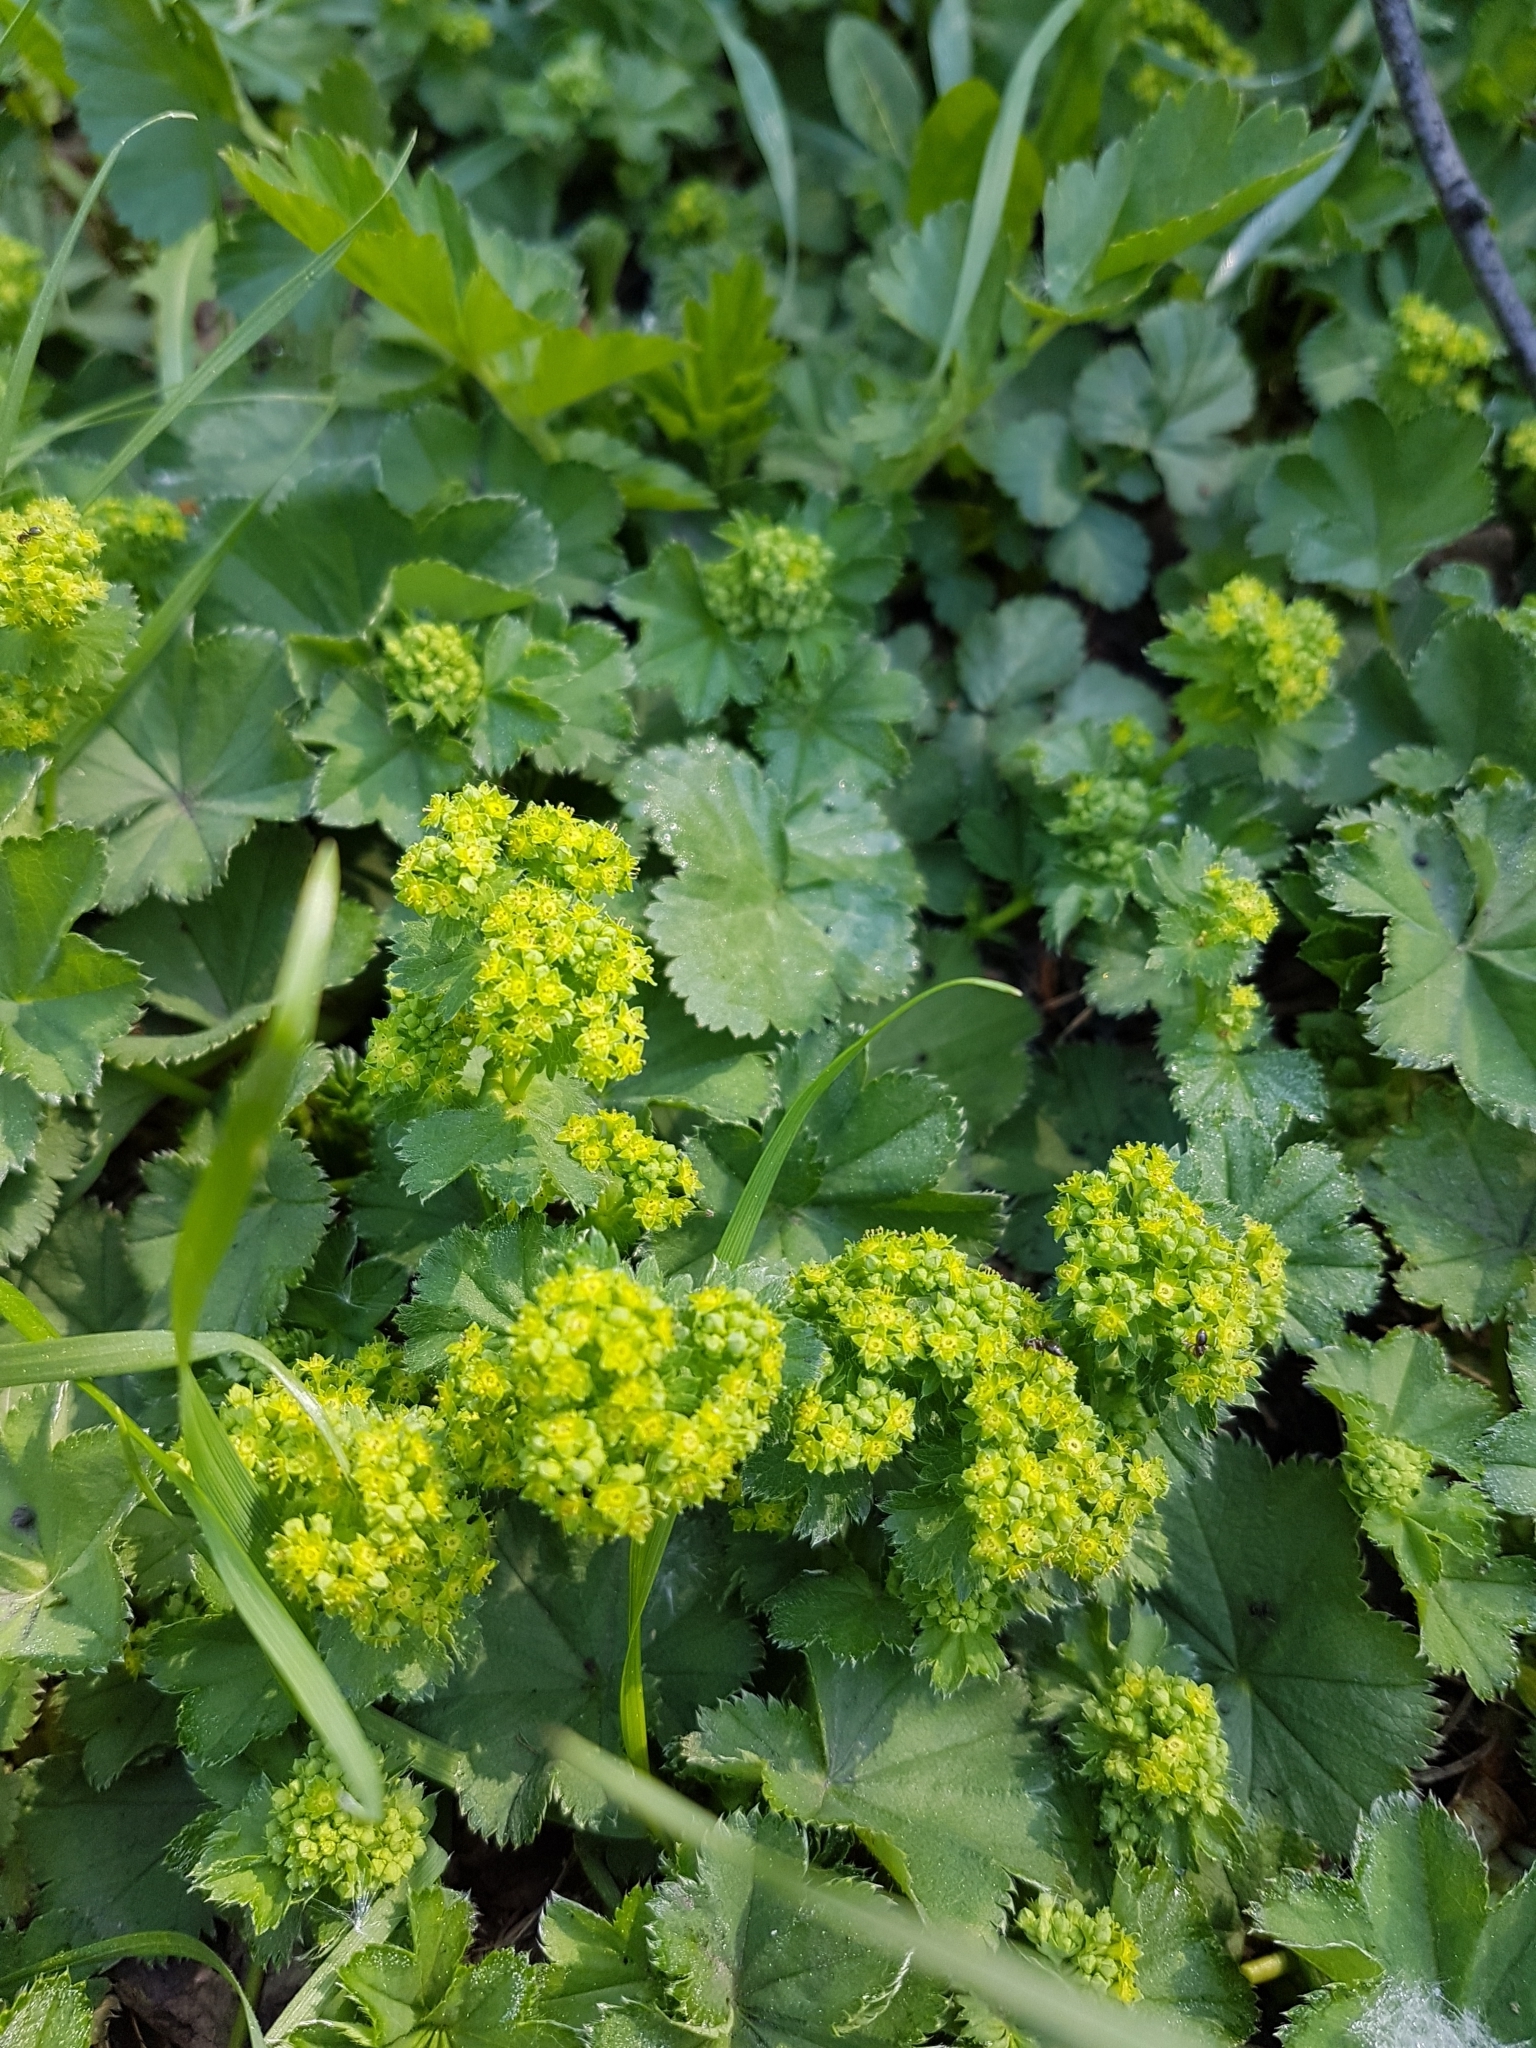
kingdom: Plantae
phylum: Tracheophyta
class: Magnoliopsida
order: Rosales
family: Rosaceae
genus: Alchemilla
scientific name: Alchemilla
